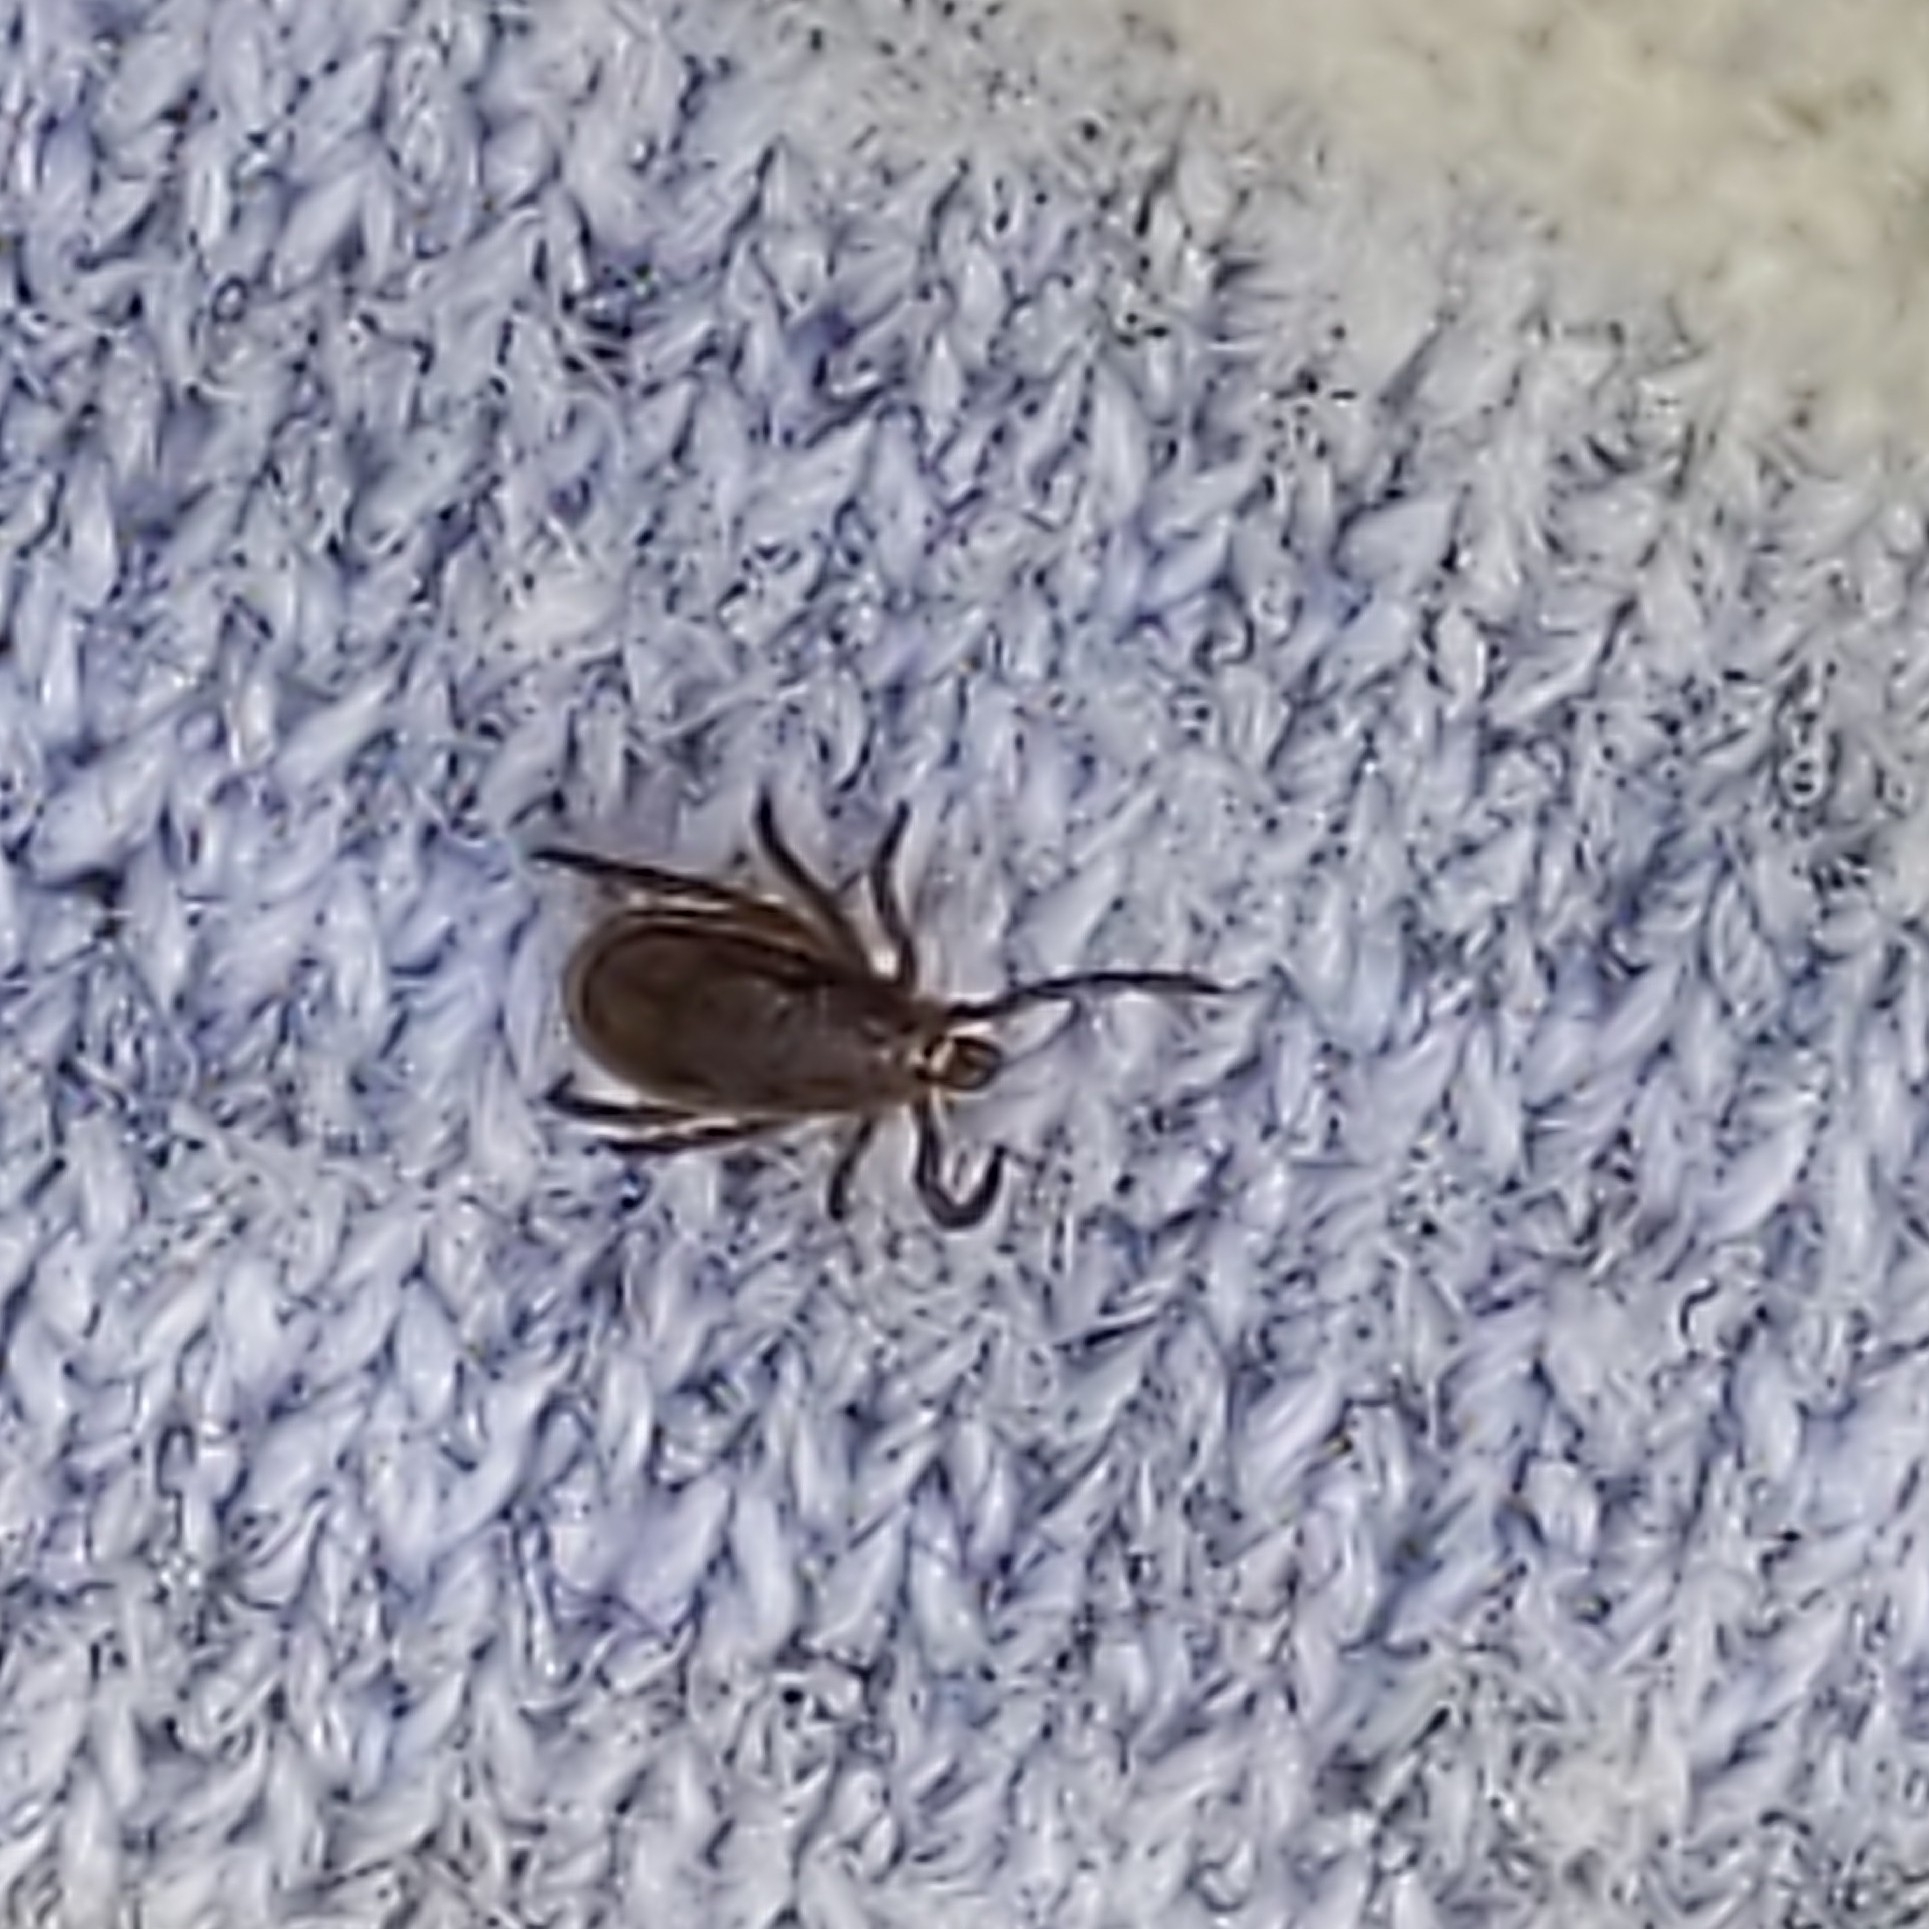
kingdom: Animalia
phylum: Arthropoda
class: Arachnida
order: Ixodida
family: Ixodidae
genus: Ixodes
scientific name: Ixodes scapularis
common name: Black legged tick
